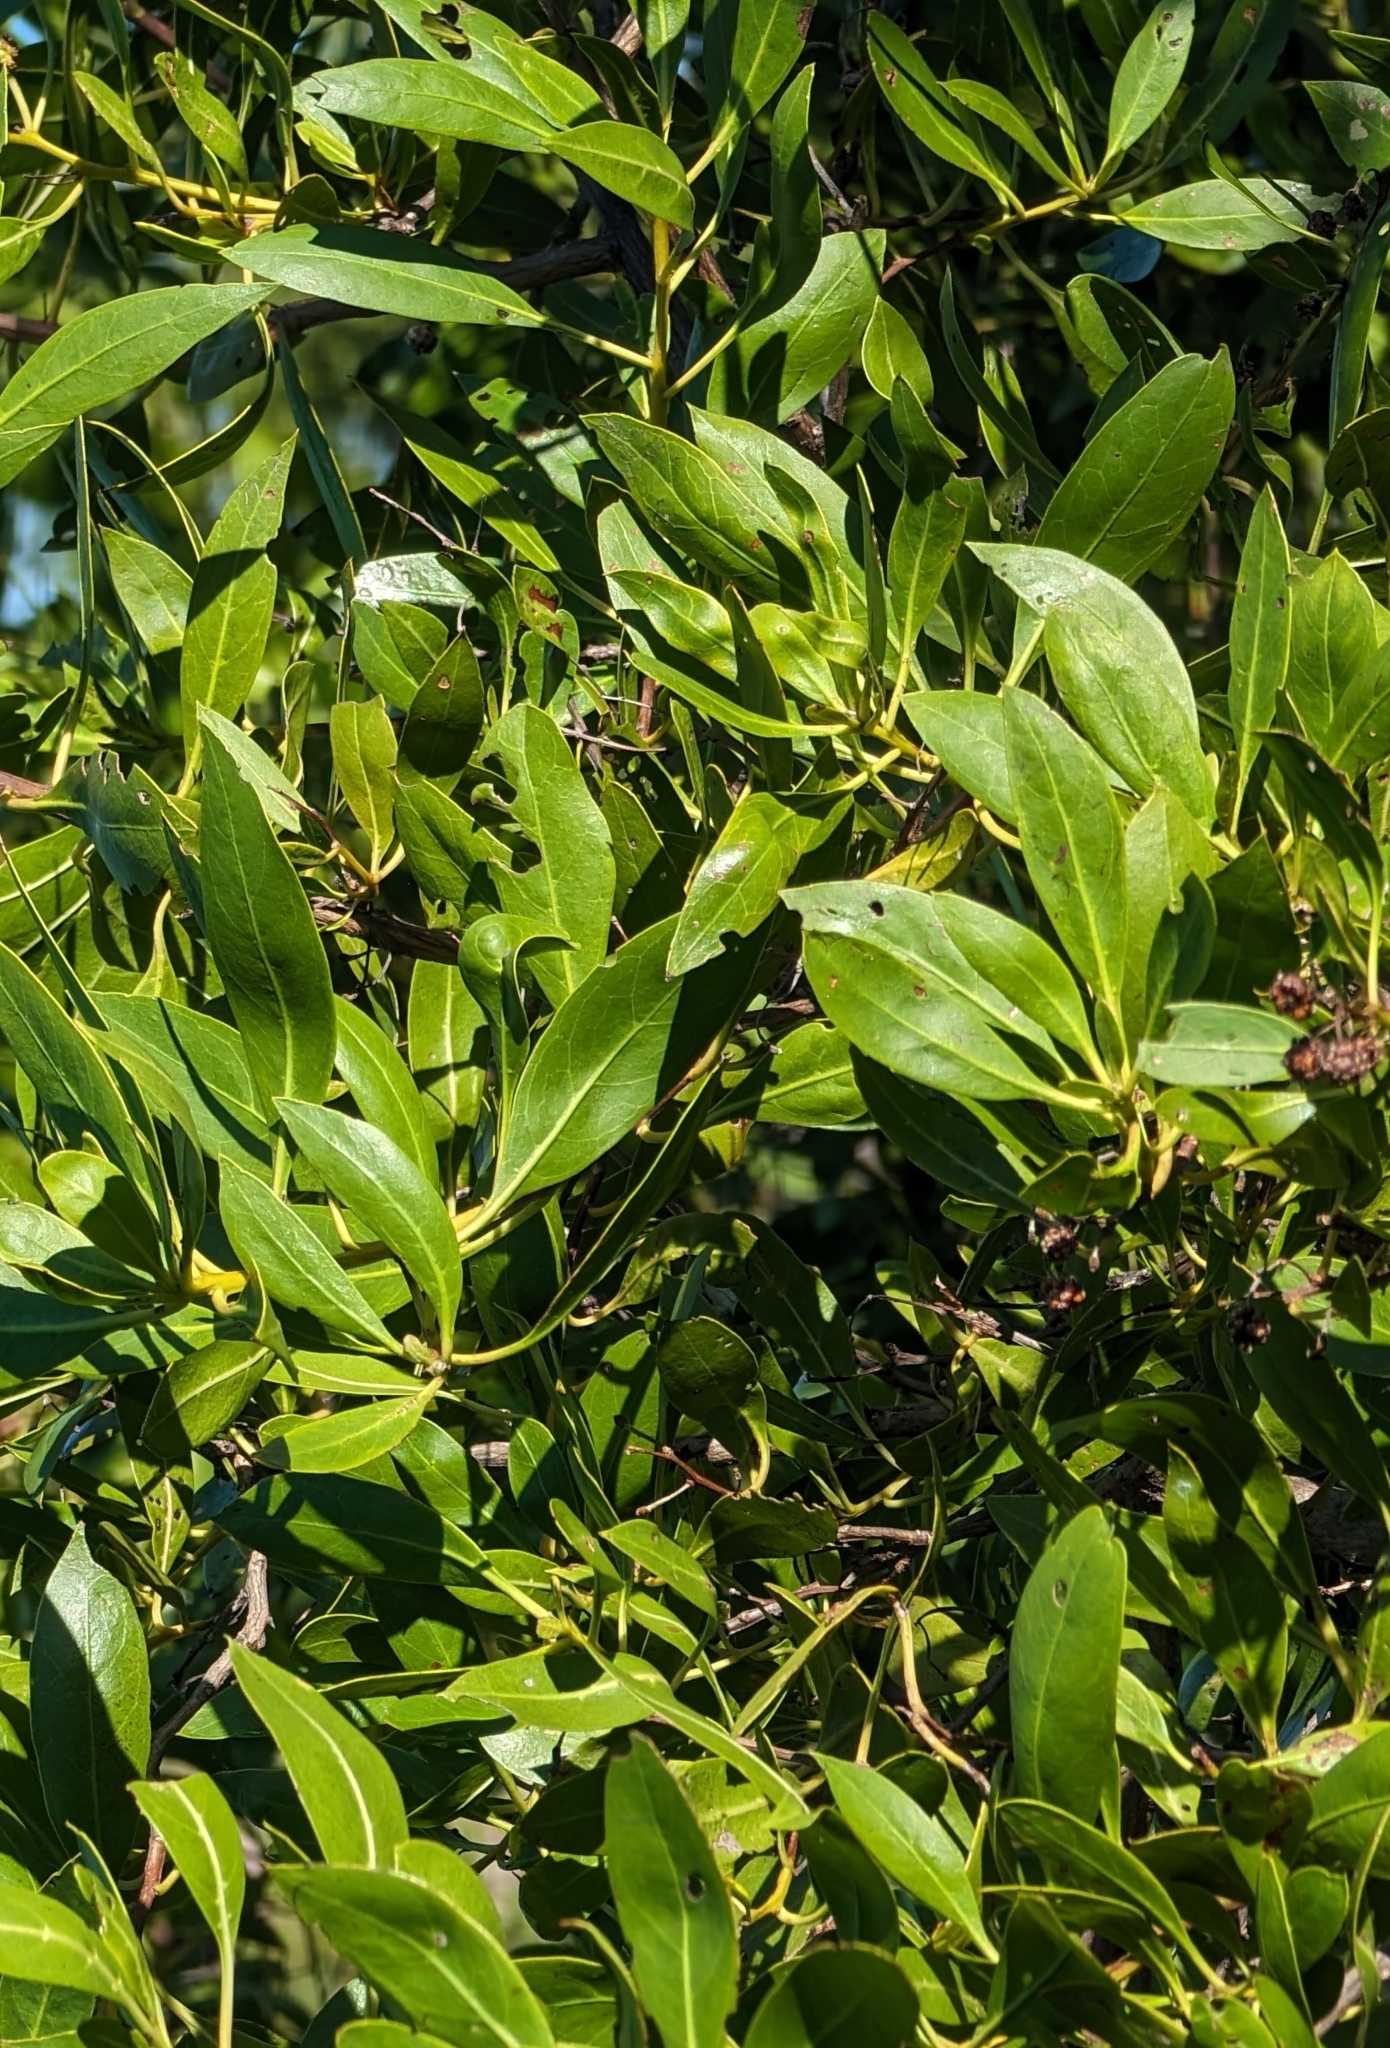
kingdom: Plantae
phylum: Tracheophyta
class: Magnoliopsida
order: Myrtales
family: Combretaceae
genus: Conocarpus
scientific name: Conocarpus erectus
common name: Button mangrove
